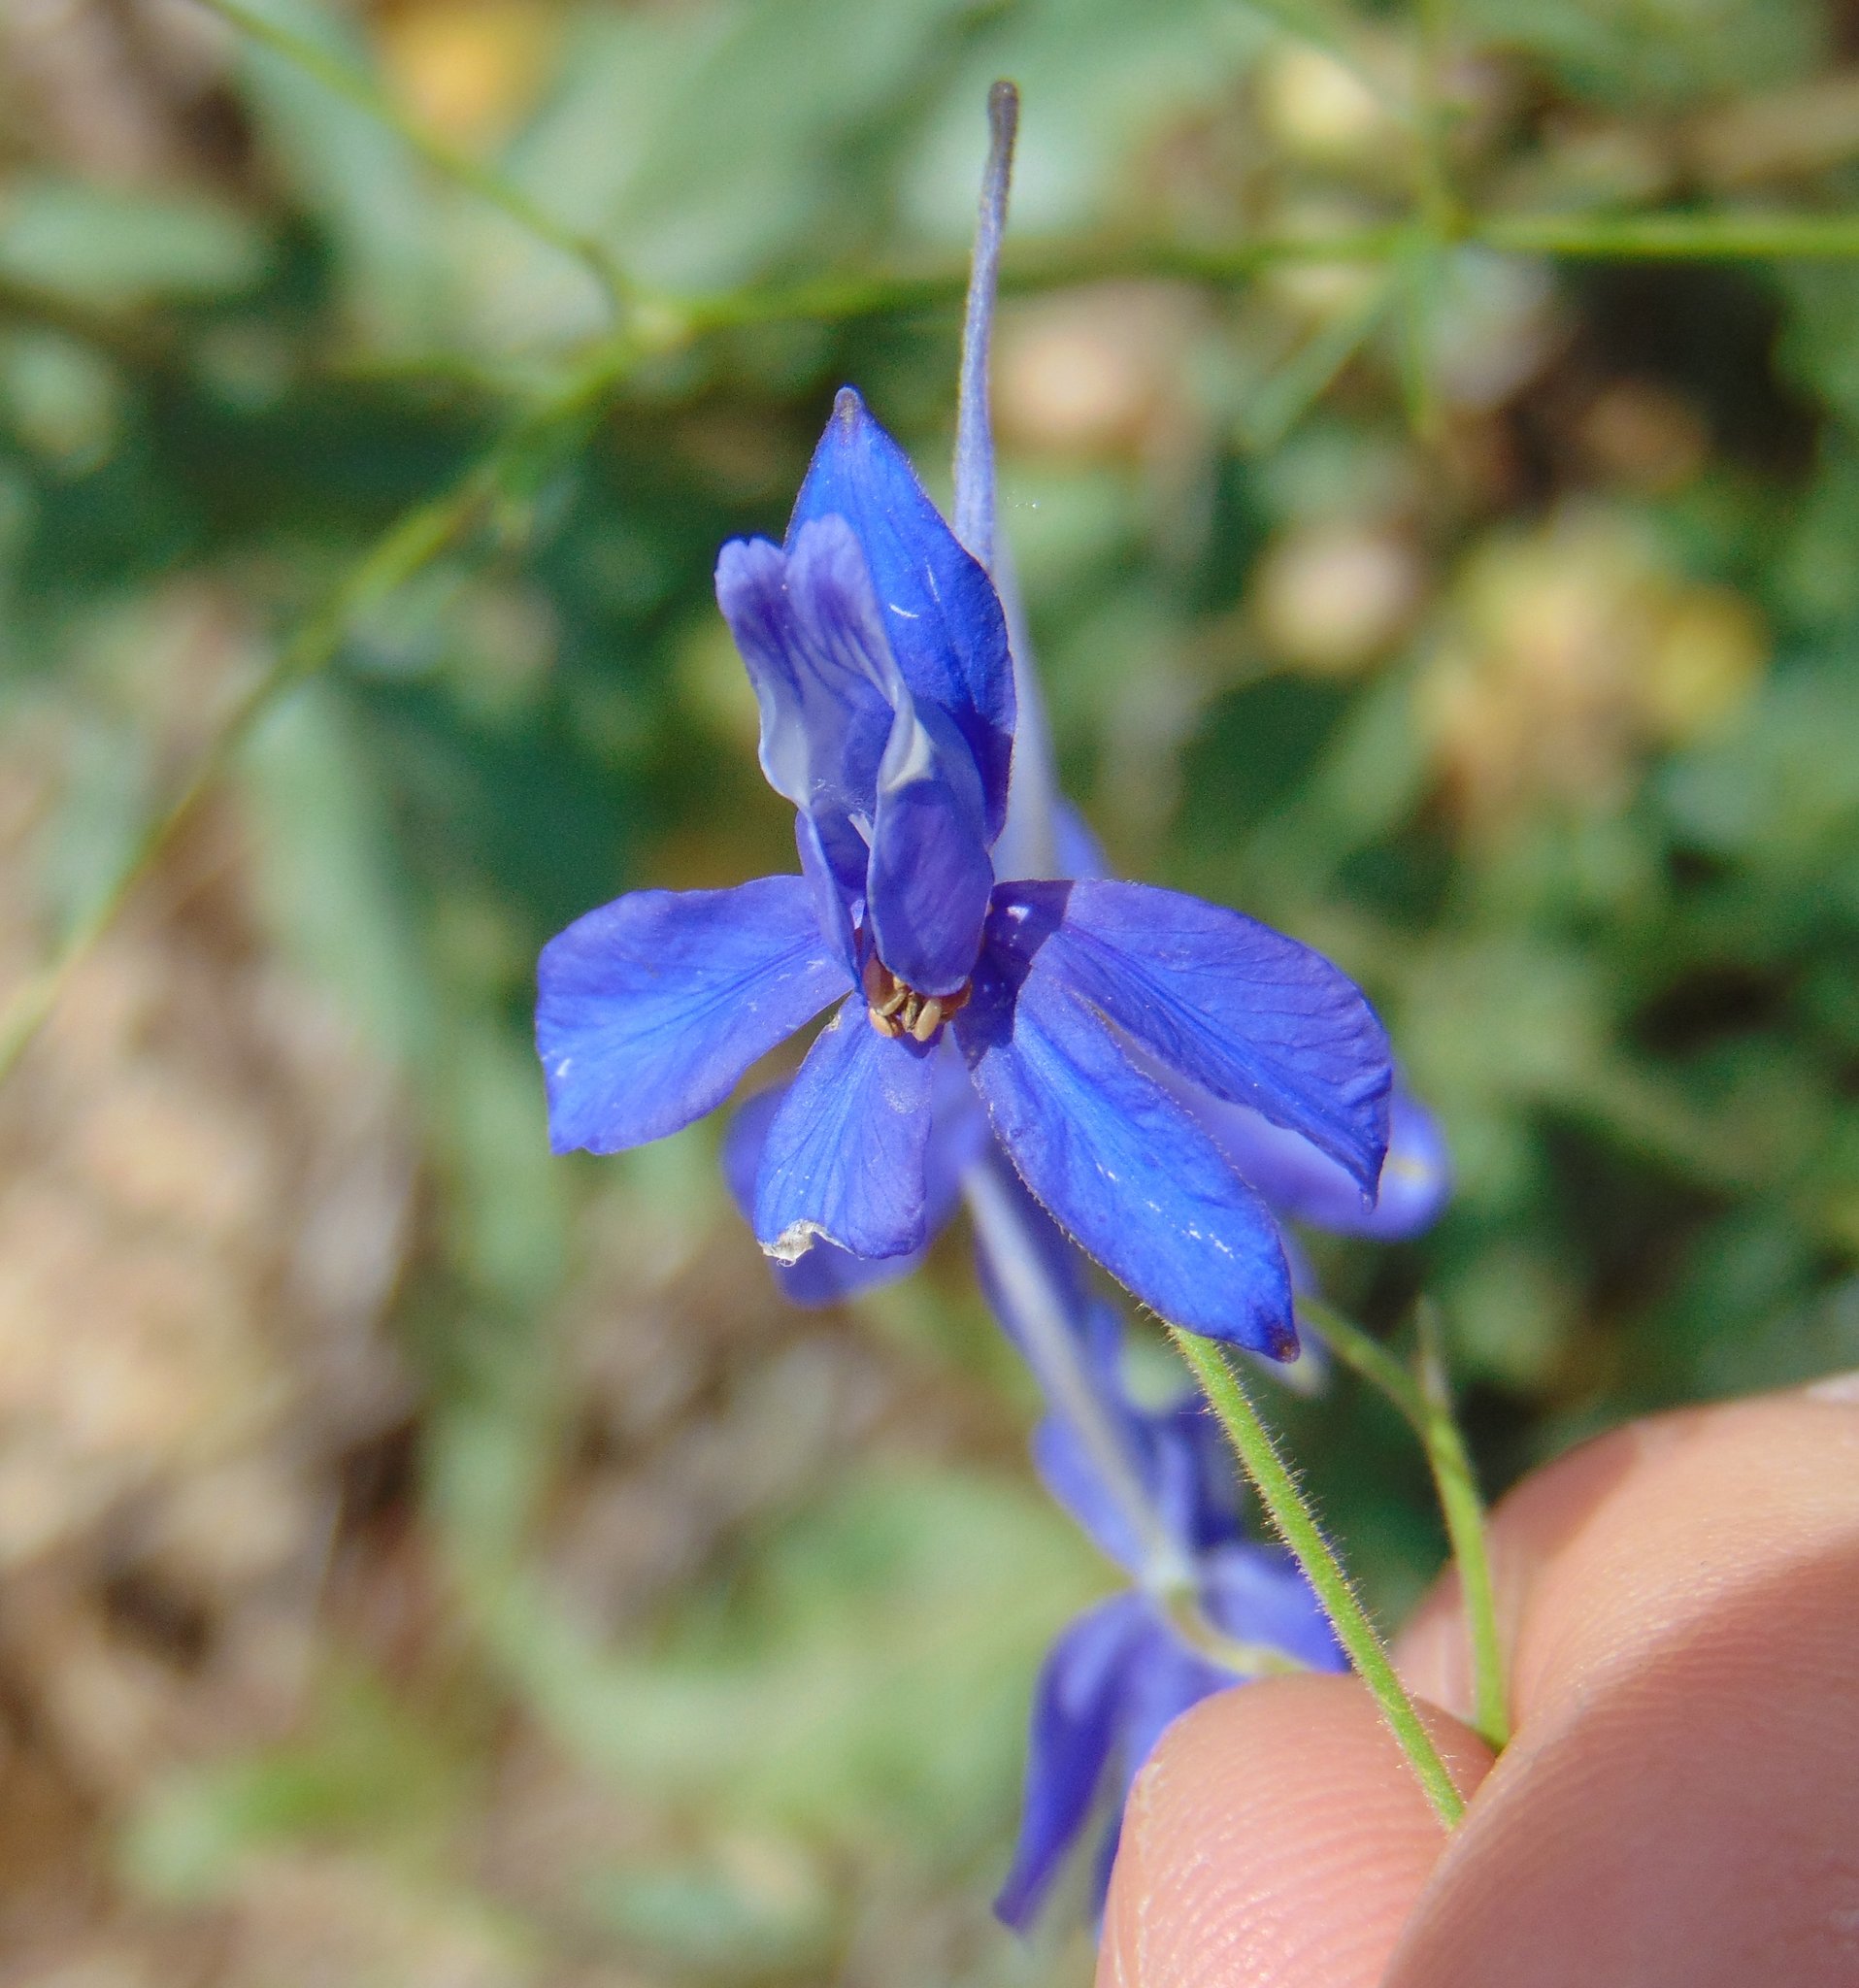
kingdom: Plantae
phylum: Tracheophyta
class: Magnoliopsida
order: Ranunculales
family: Ranunculaceae
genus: Delphinium
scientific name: Delphinium consolida
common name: Branching larkspur
